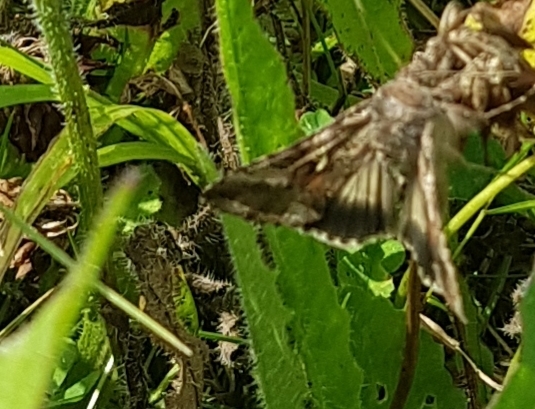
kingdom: Animalia
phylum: Arthropoda
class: Insecta
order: Lepidoptera
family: Noctuidae
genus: Autographa
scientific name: Autographa gamma
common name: Silver y
